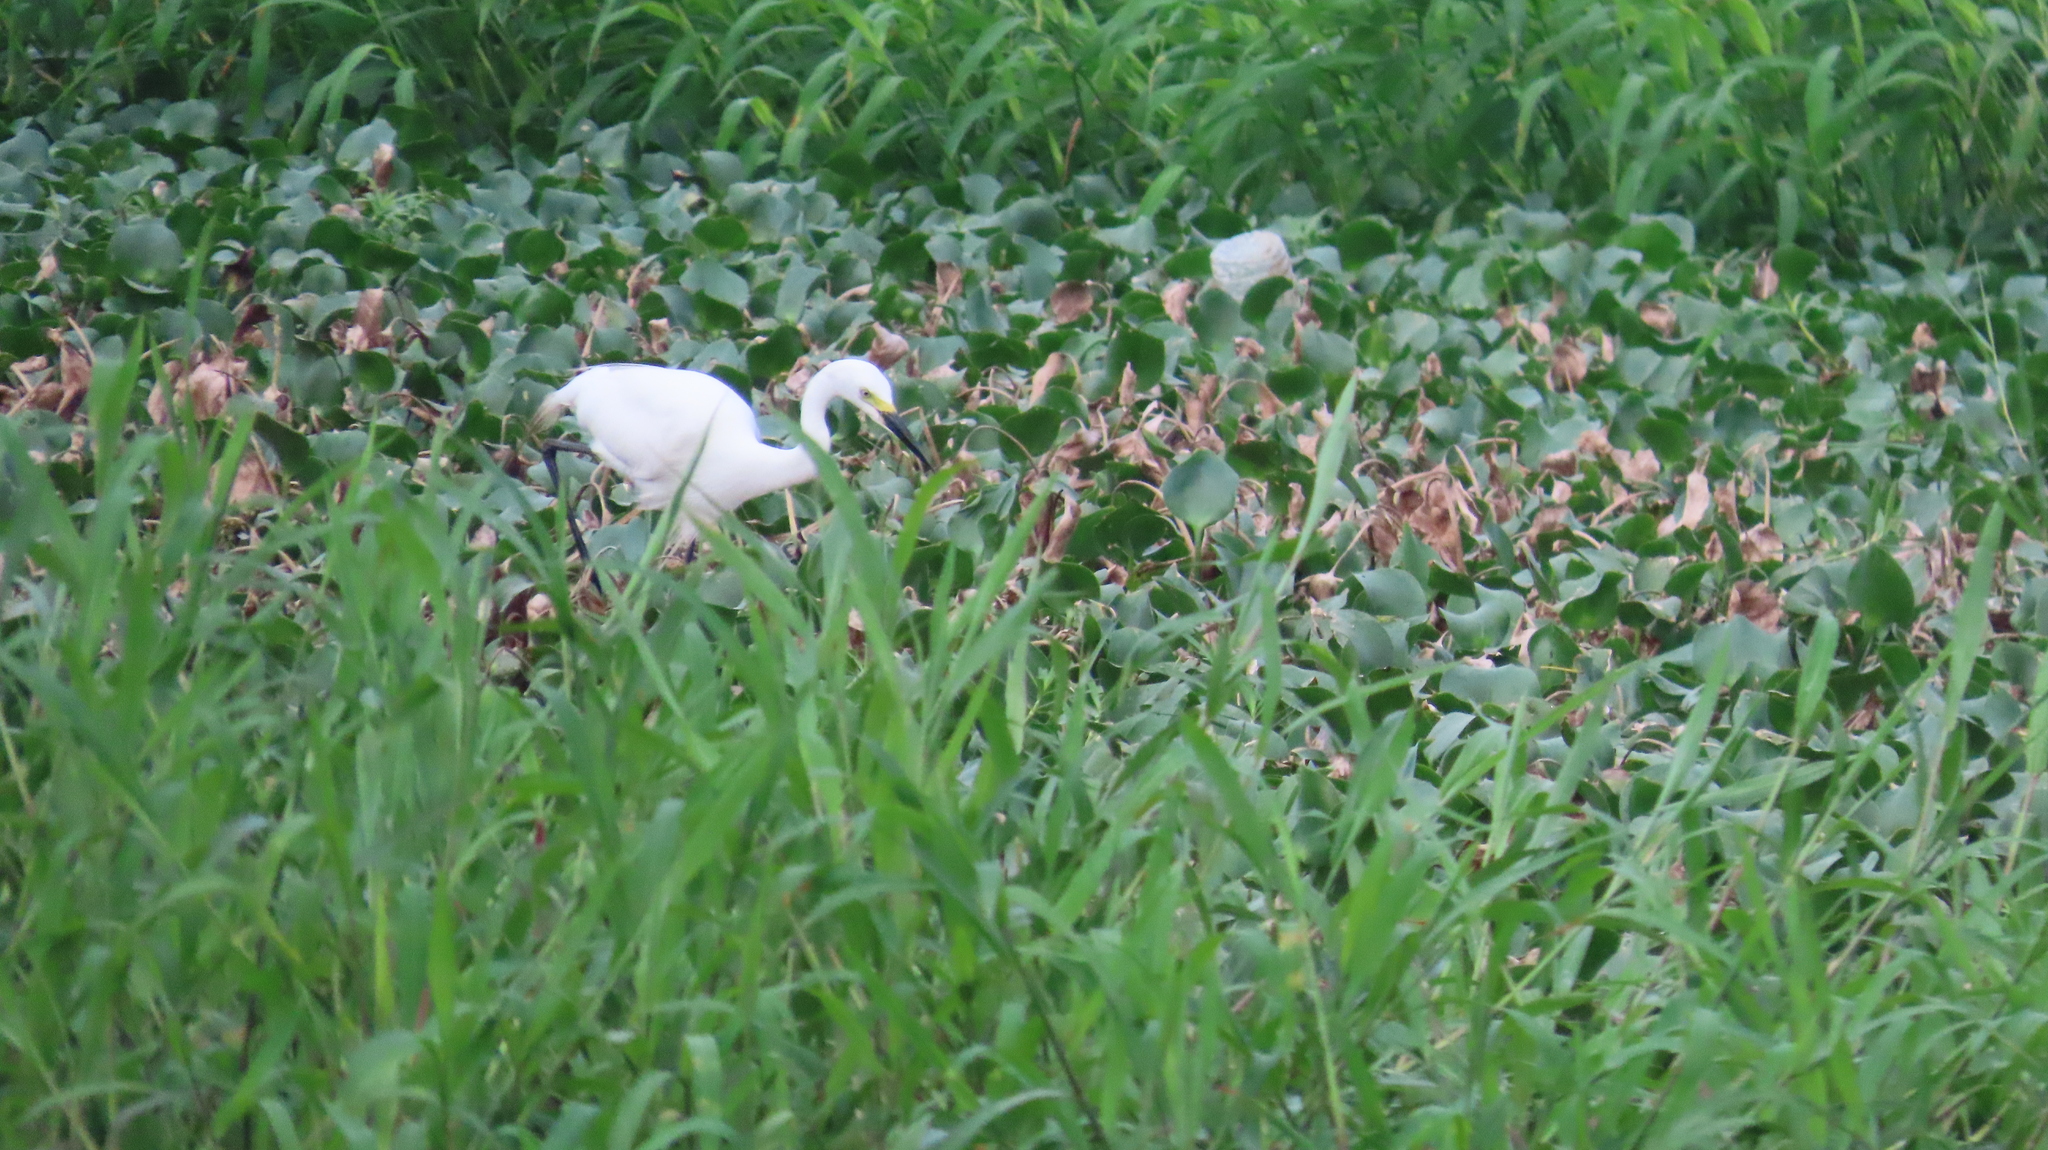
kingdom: Animalia
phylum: Chordata
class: Aves
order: Pelecaniformes
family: Ardeidae
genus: Egretta
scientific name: Egretta intermedia
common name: Intermediate egret
